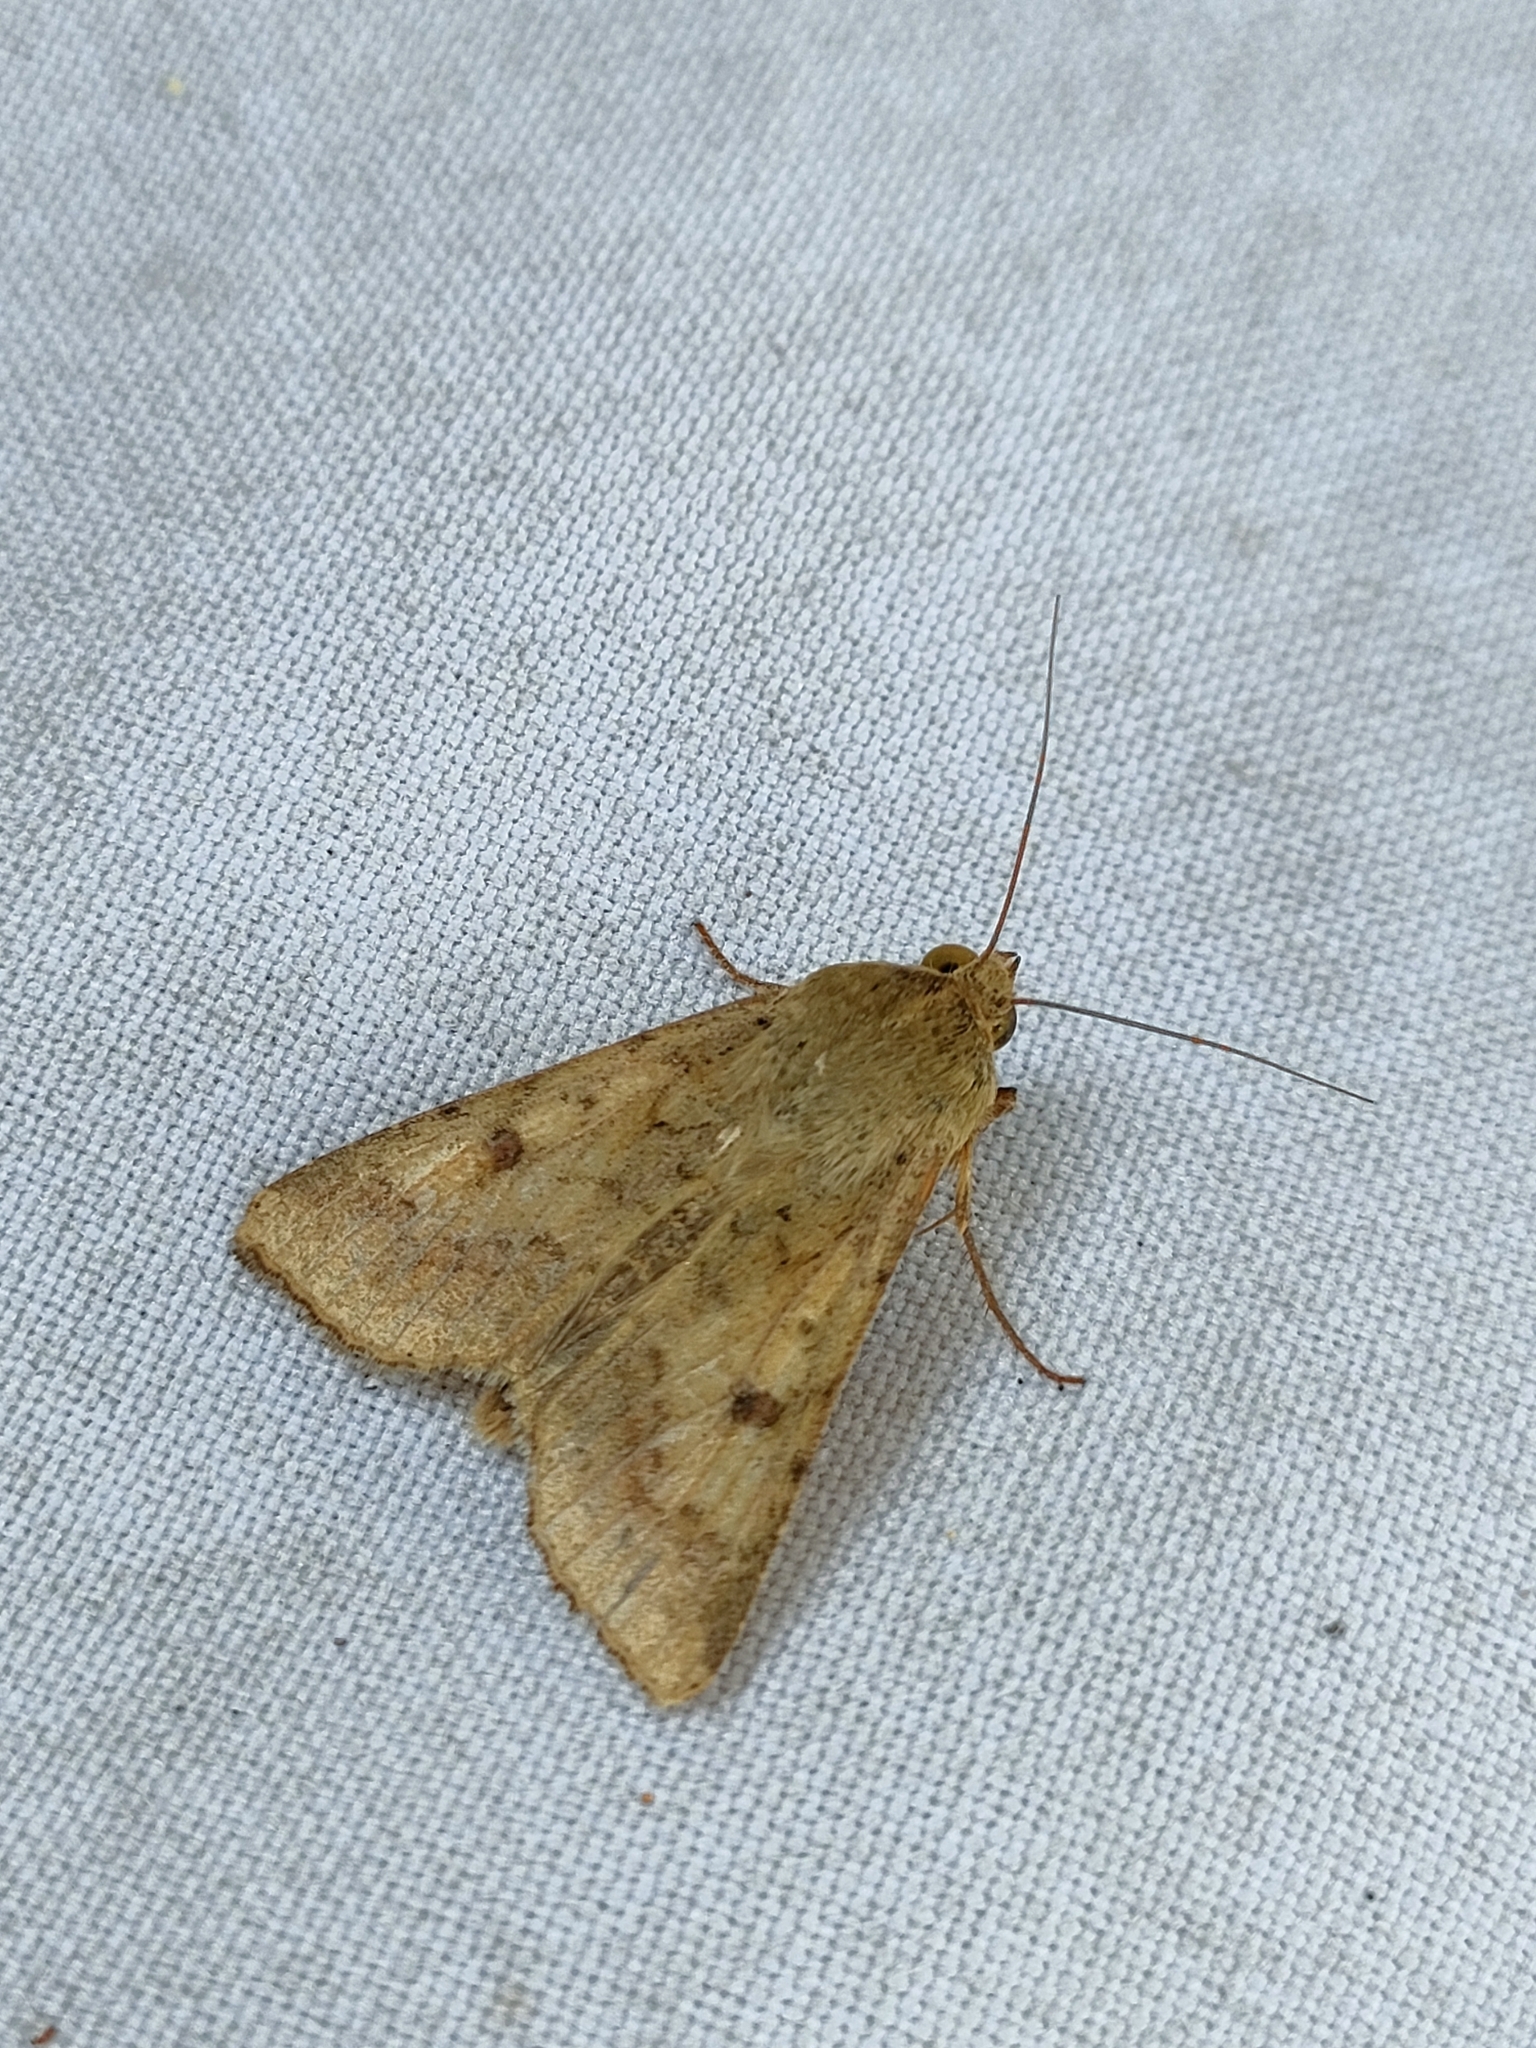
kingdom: Animalia
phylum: Arthropoda
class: Insecta
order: Lepidoptera
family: Noctuidae
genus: Helicoverpa
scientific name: Helicoverpa armigera
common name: Cotton bollworm
